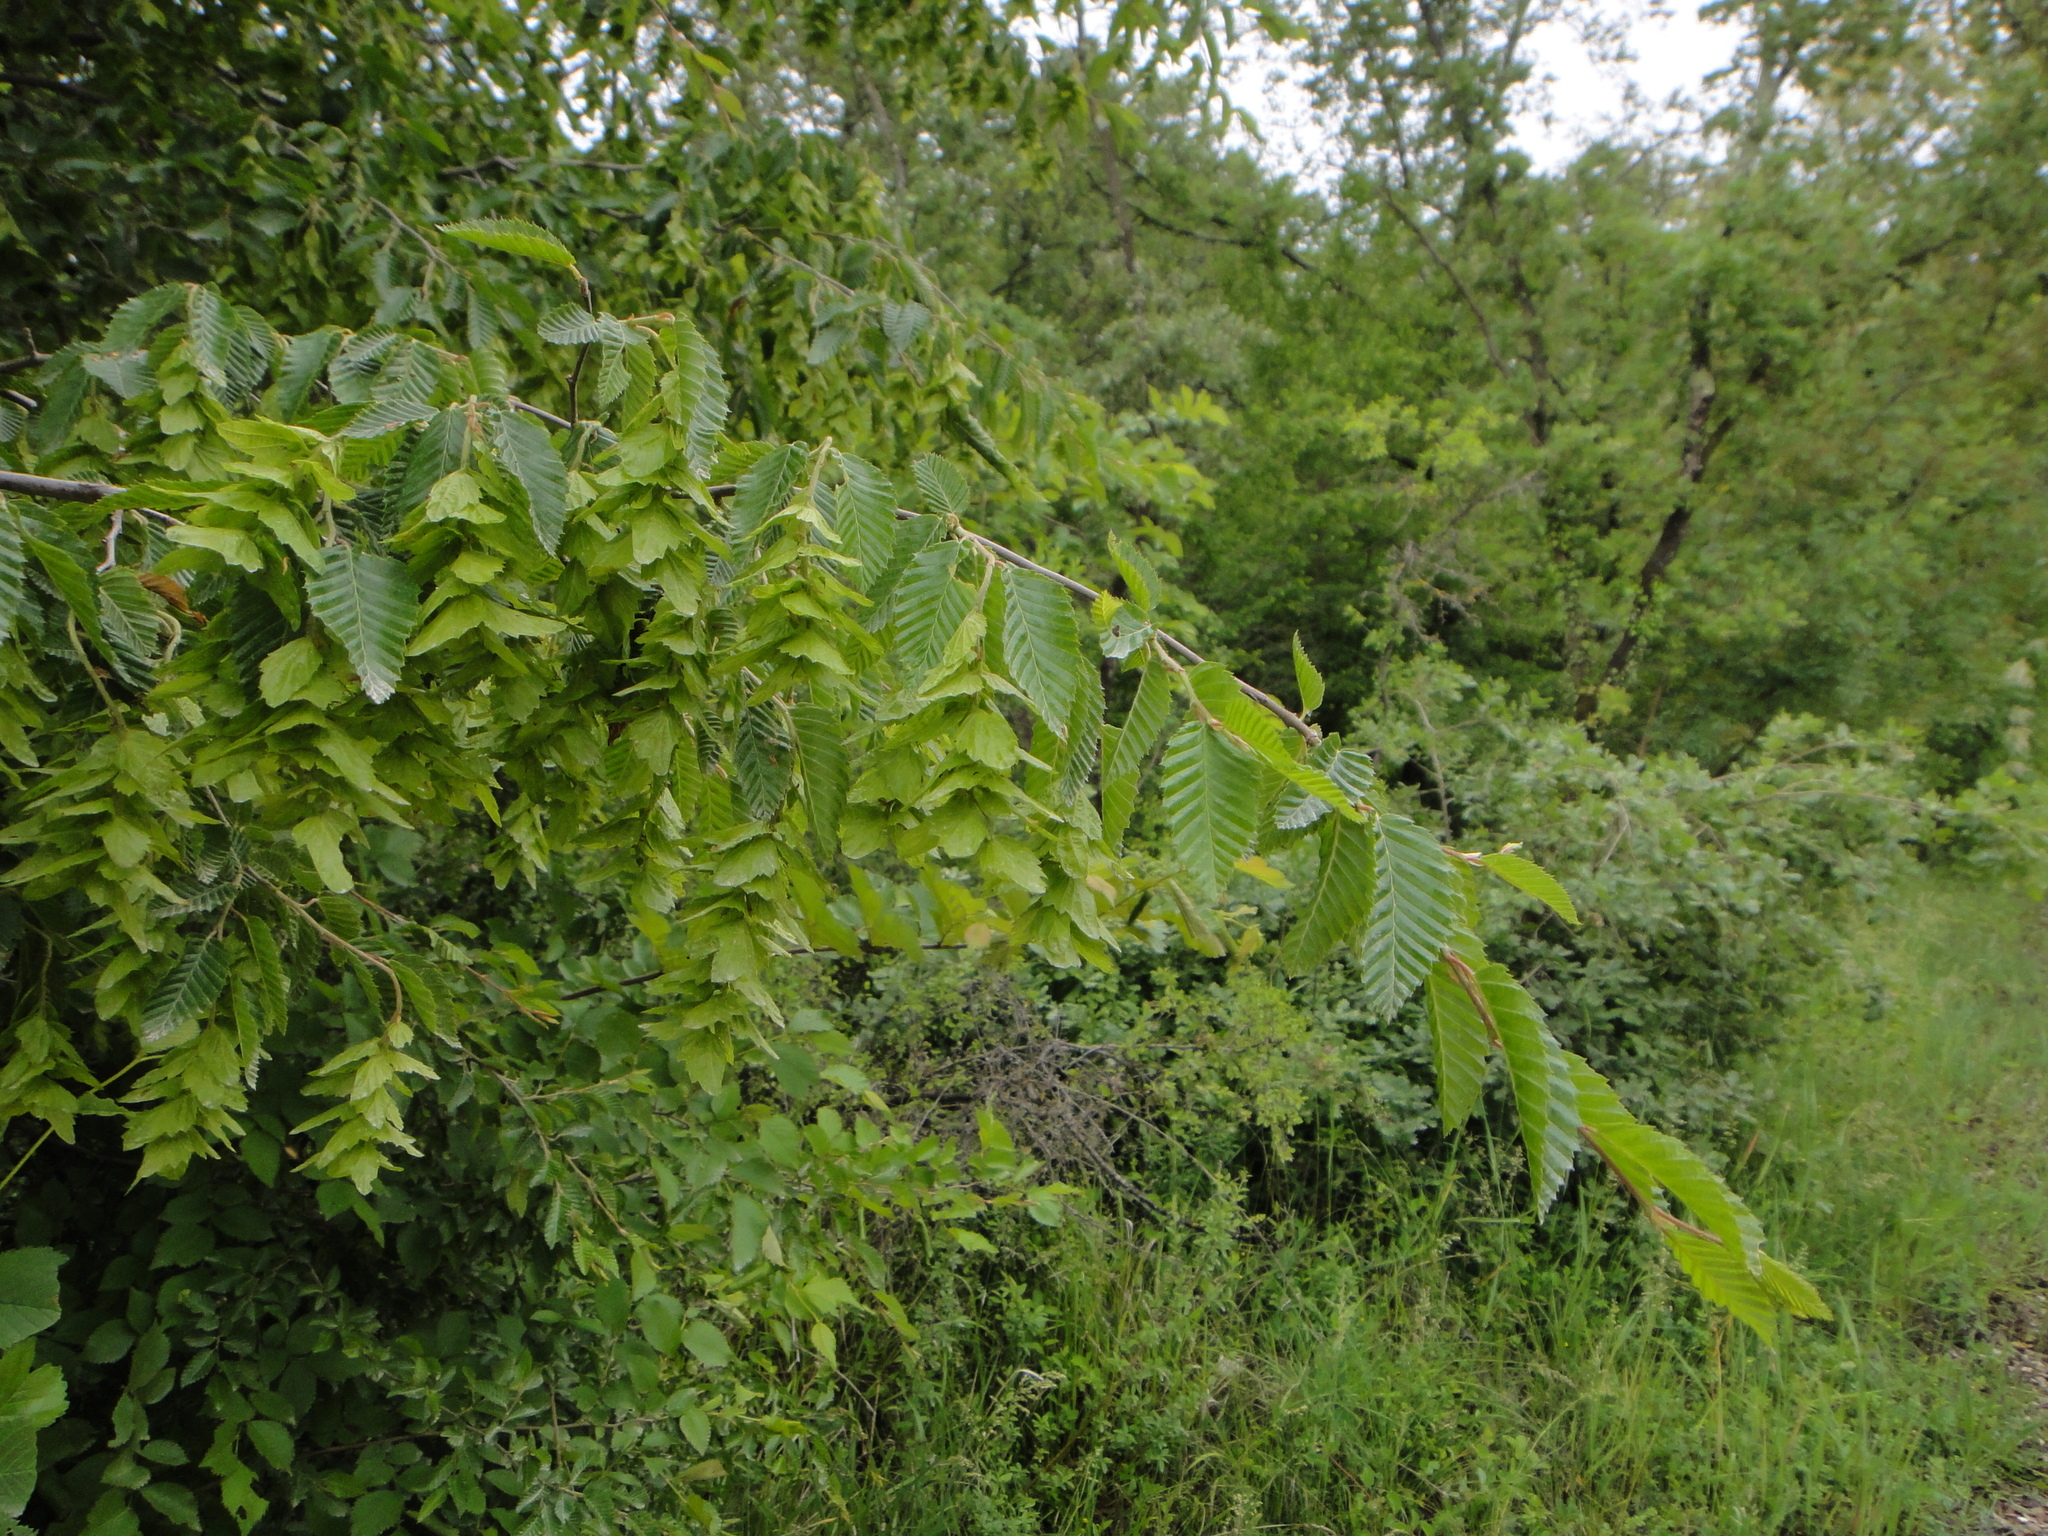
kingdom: Plantae
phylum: Tracheophyta
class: Magnoliopsida
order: Fagales
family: Betulaceae
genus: Carpinus
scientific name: Carpinus orientalis
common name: Eastern hornbeam
